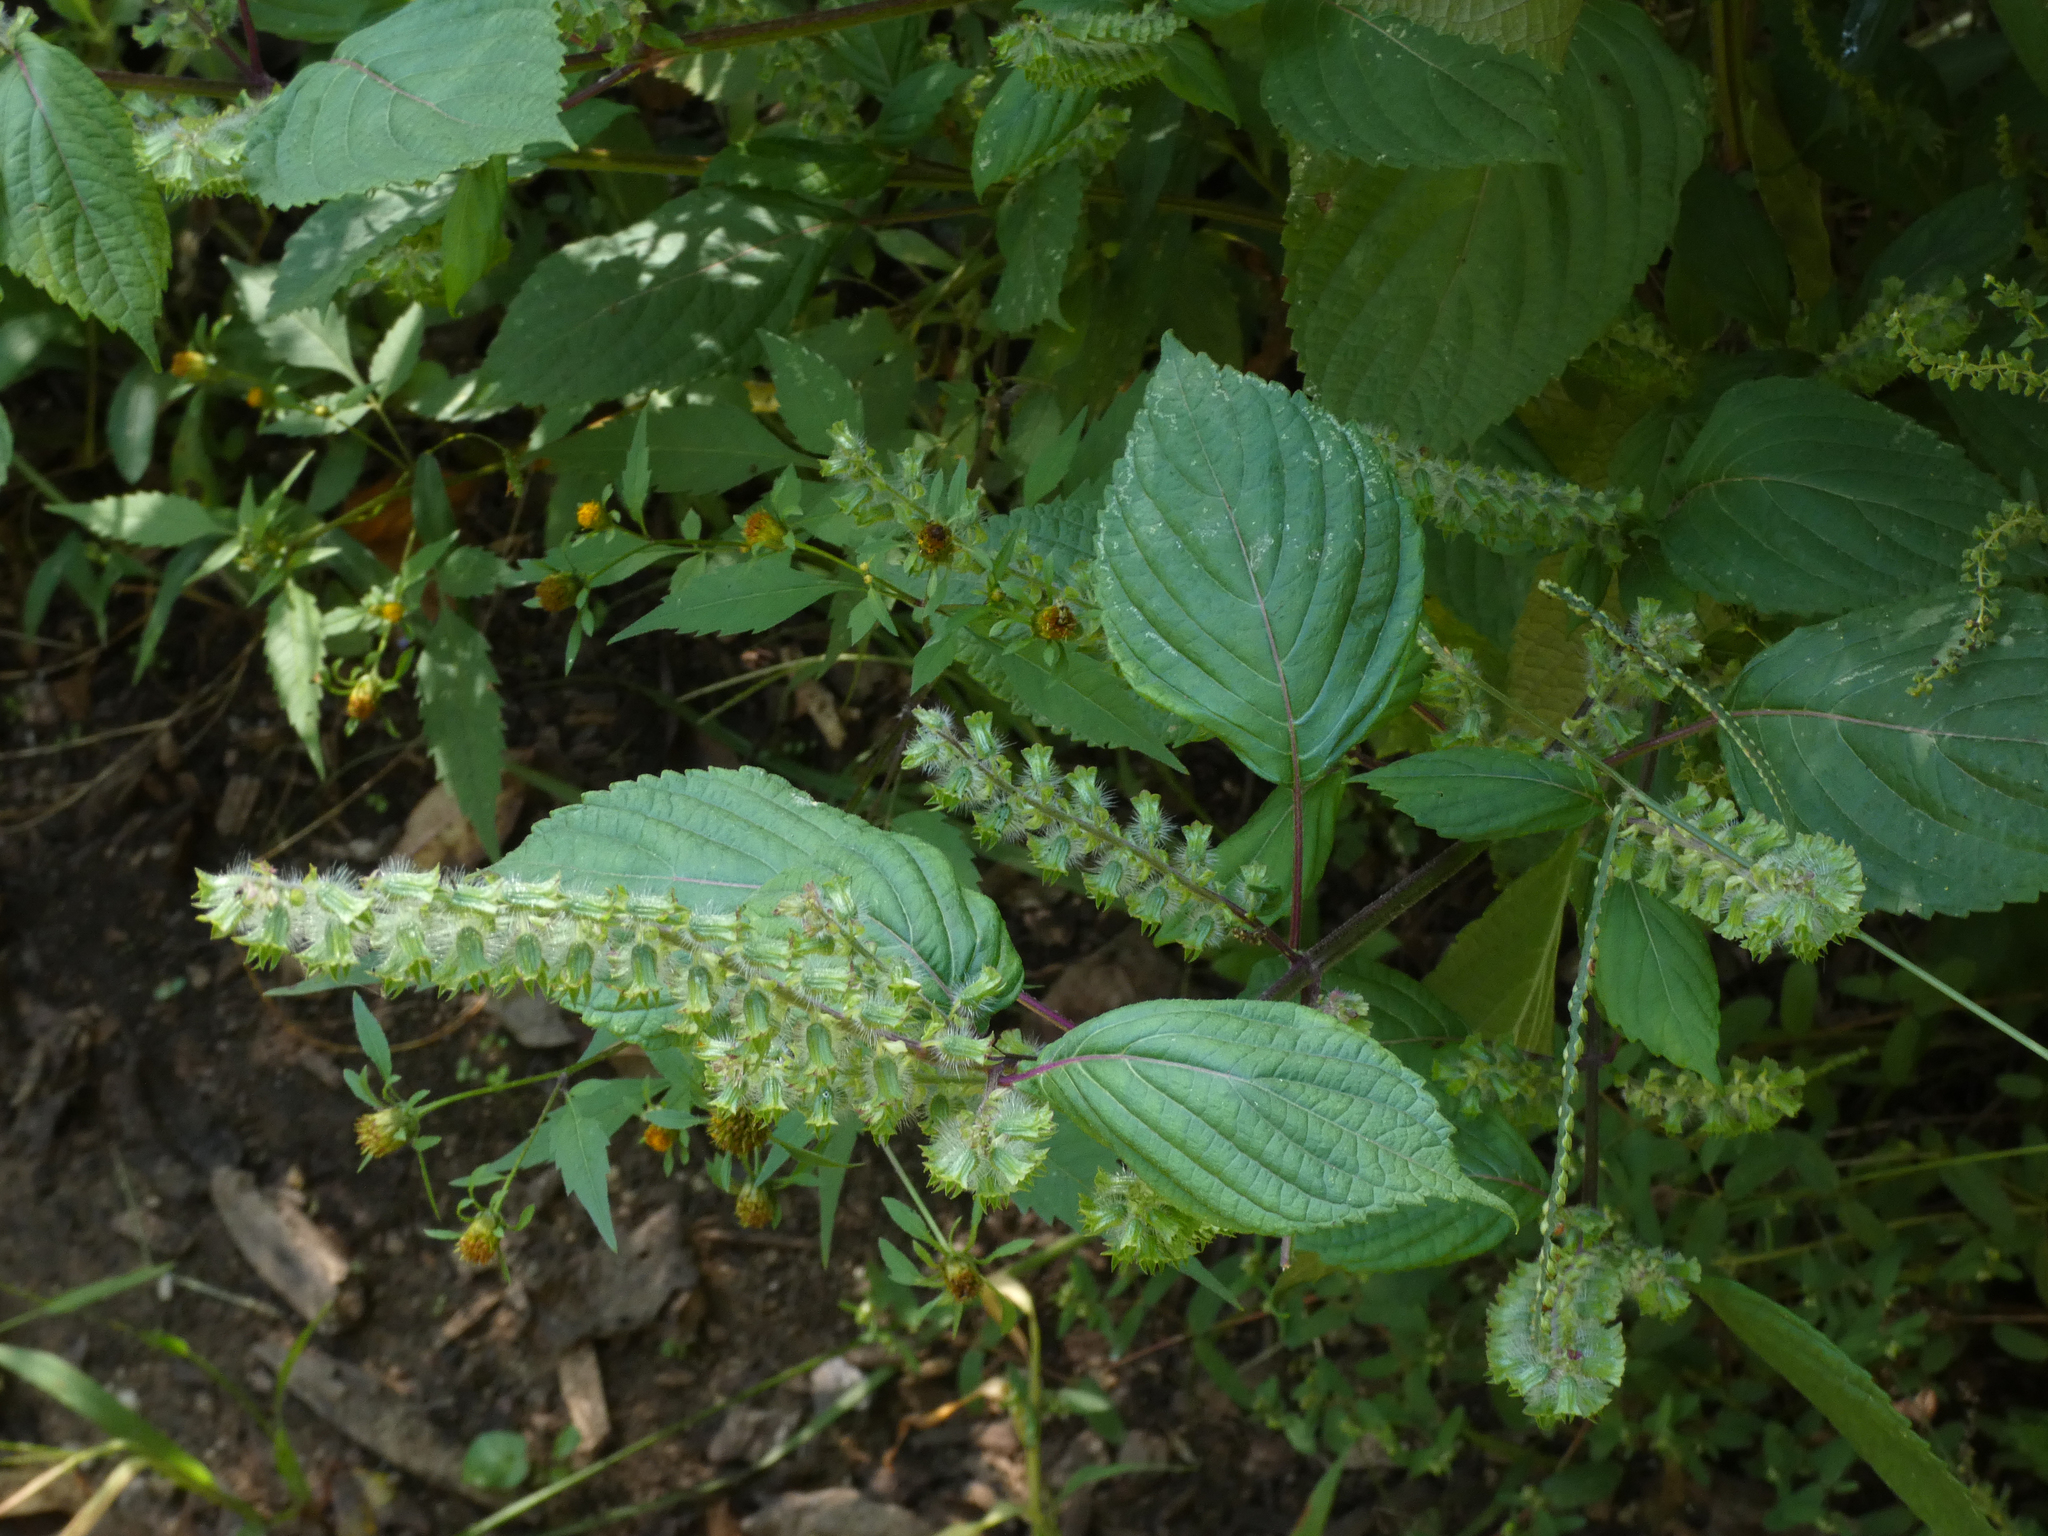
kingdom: Plantae
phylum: Tracheophyta
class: Magnoliopsida
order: Lamiales
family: Lamiaceae
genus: Perilla
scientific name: Perilla frutescens
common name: Perilla
